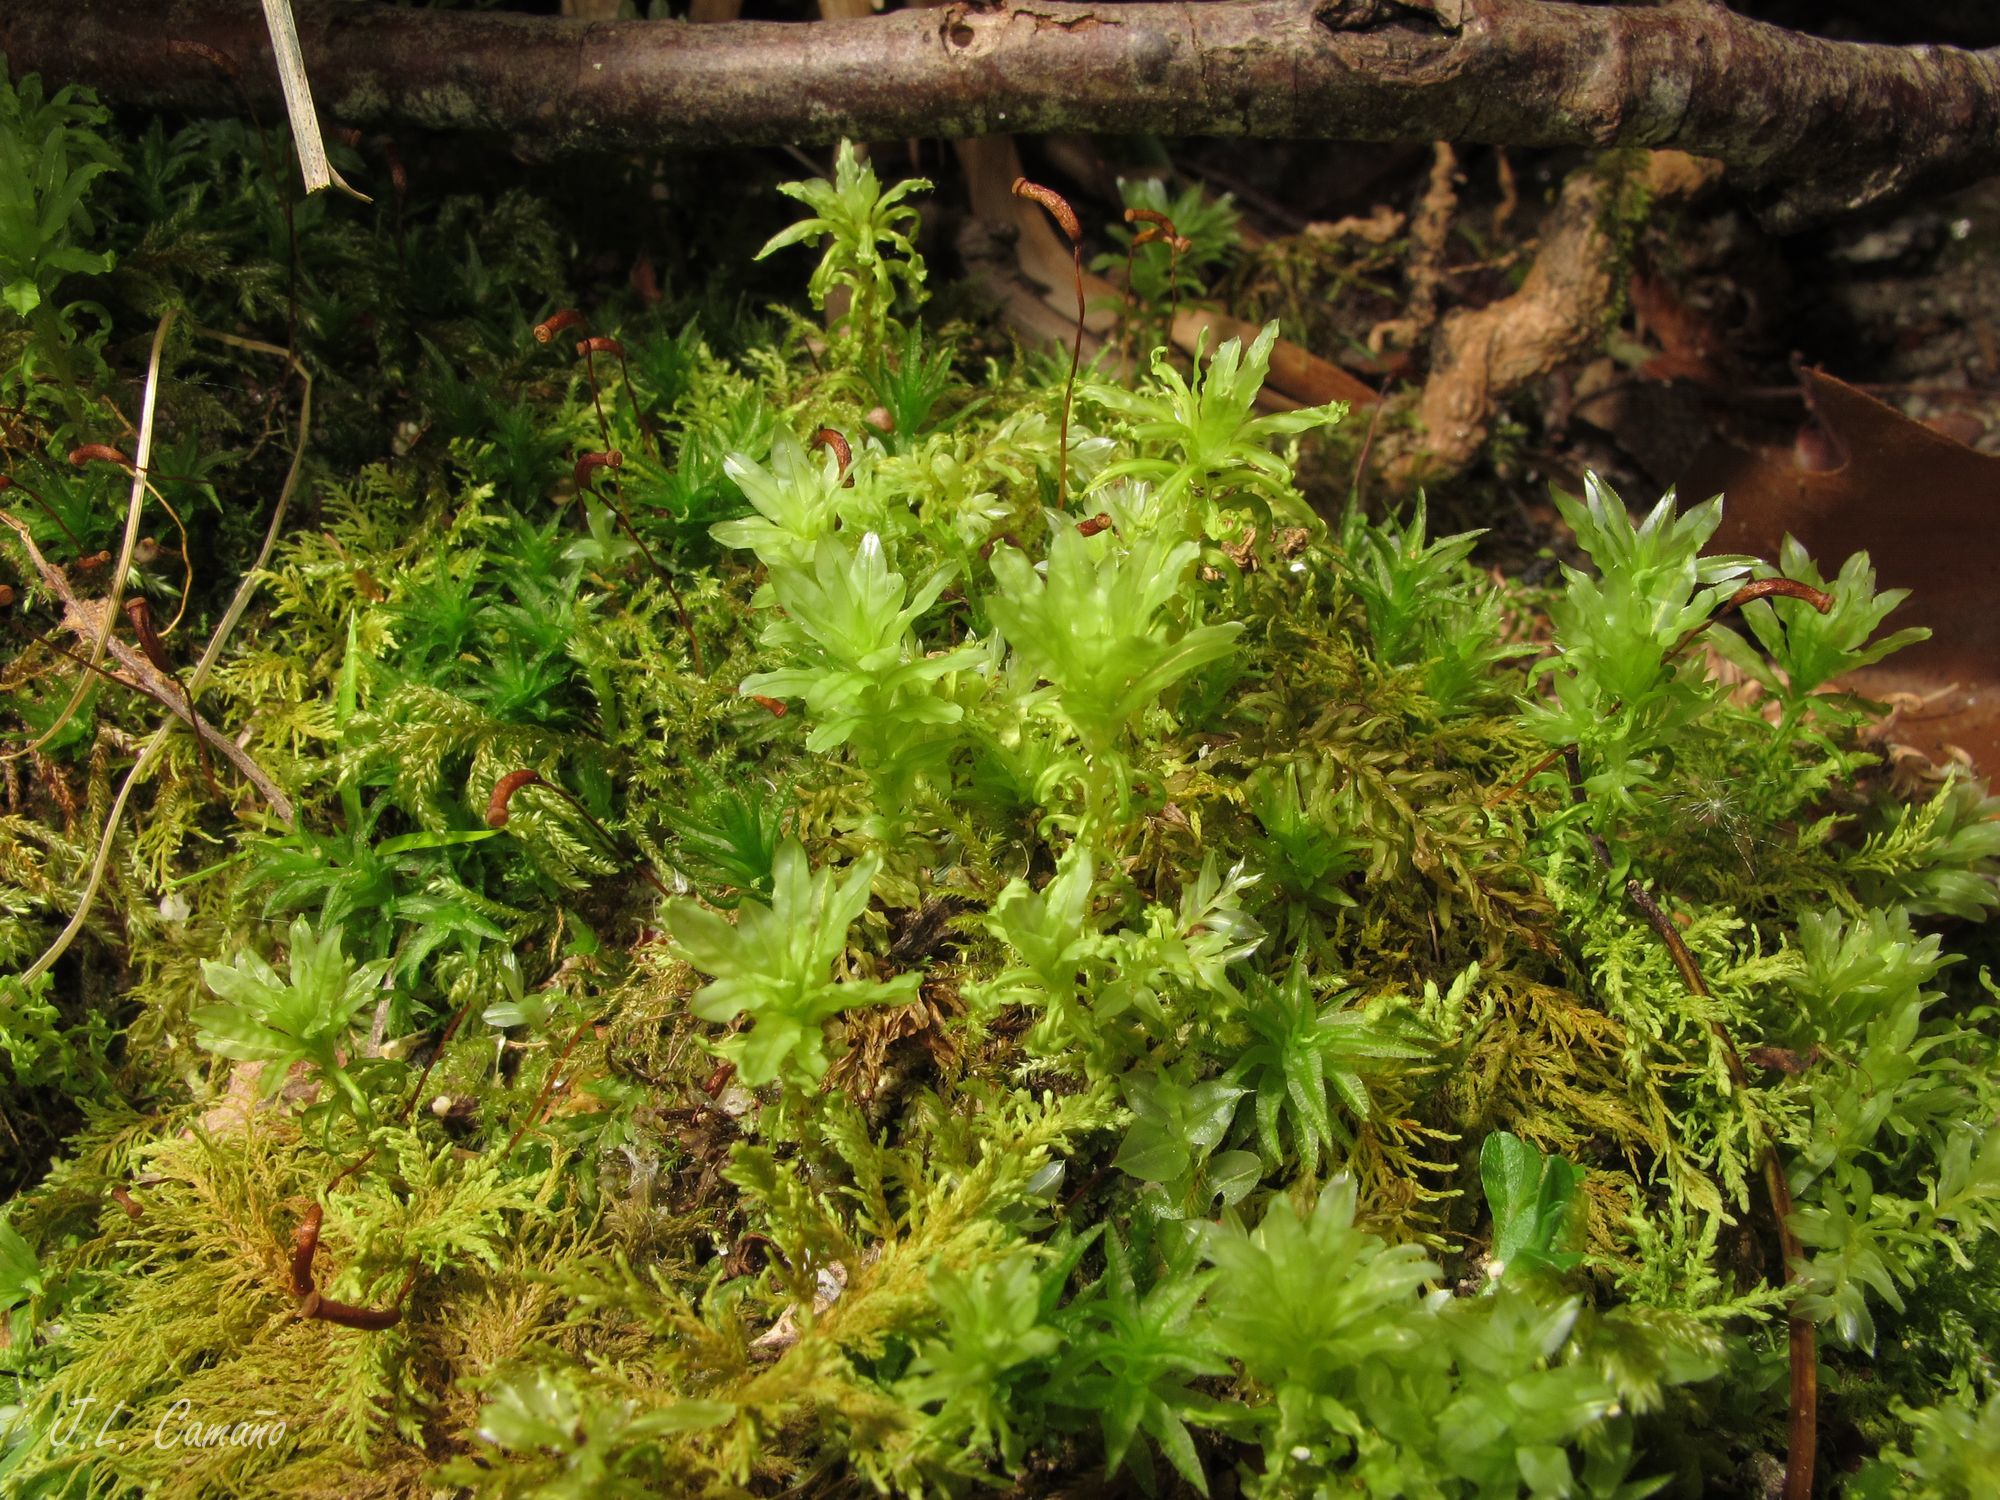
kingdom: Plantae
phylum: Bryophyta
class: Bryopsida
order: Bryales
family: Mniaceae
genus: Plagiomnium
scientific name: Plagiomnium undulatum
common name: Hart's-tongue thyme-moss
